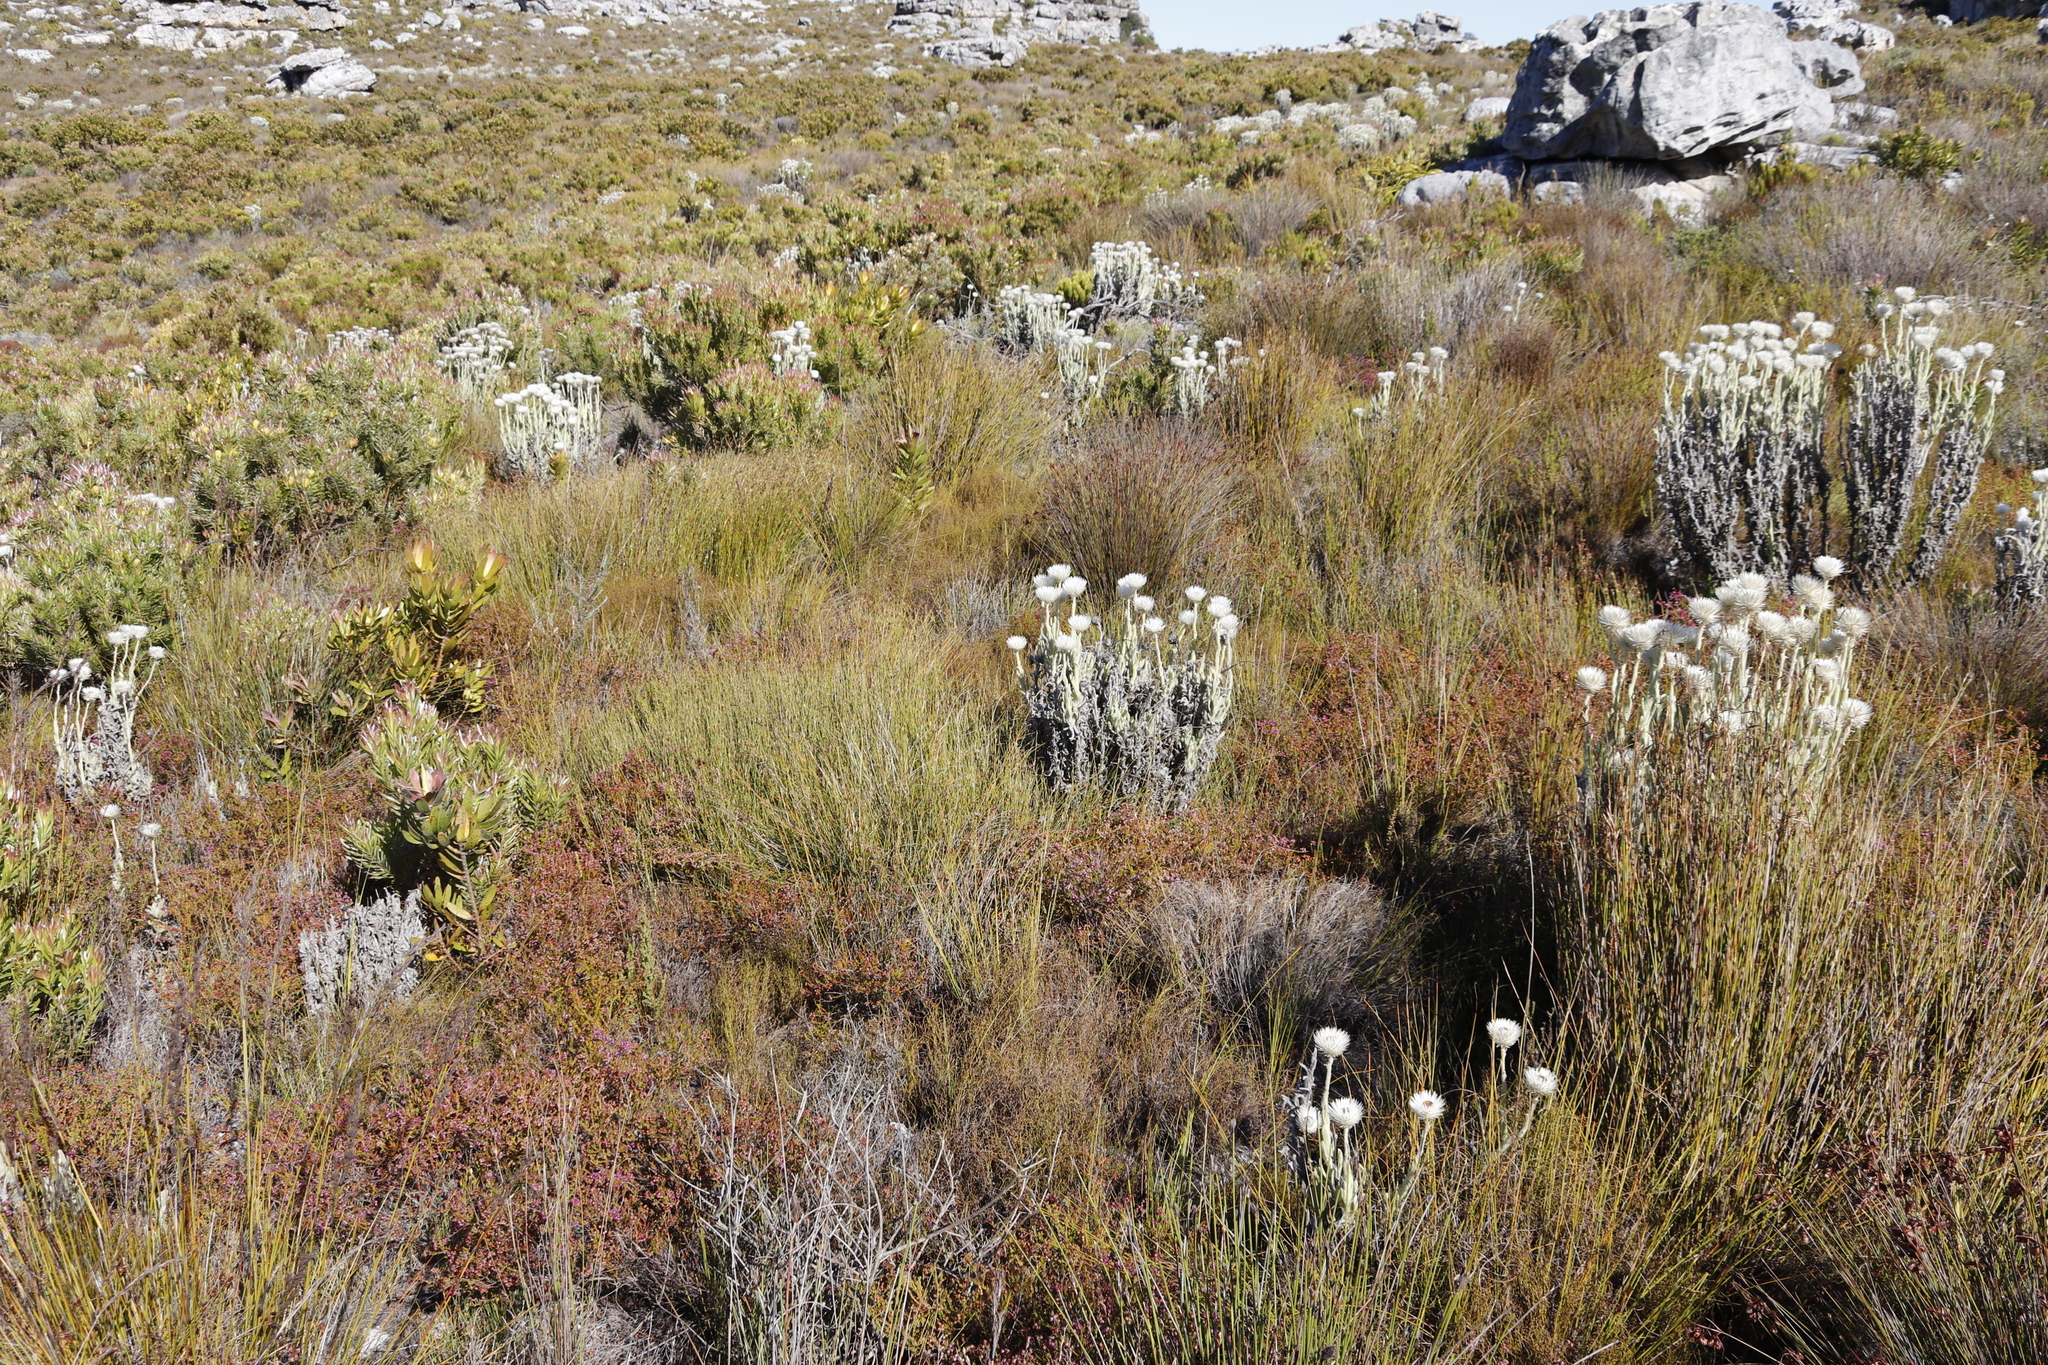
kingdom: Plantae
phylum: Tracheophyta
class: Magnoliopsida
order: Asterales
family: Asteraceae
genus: Syncarpha
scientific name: Syncarpha vestita
